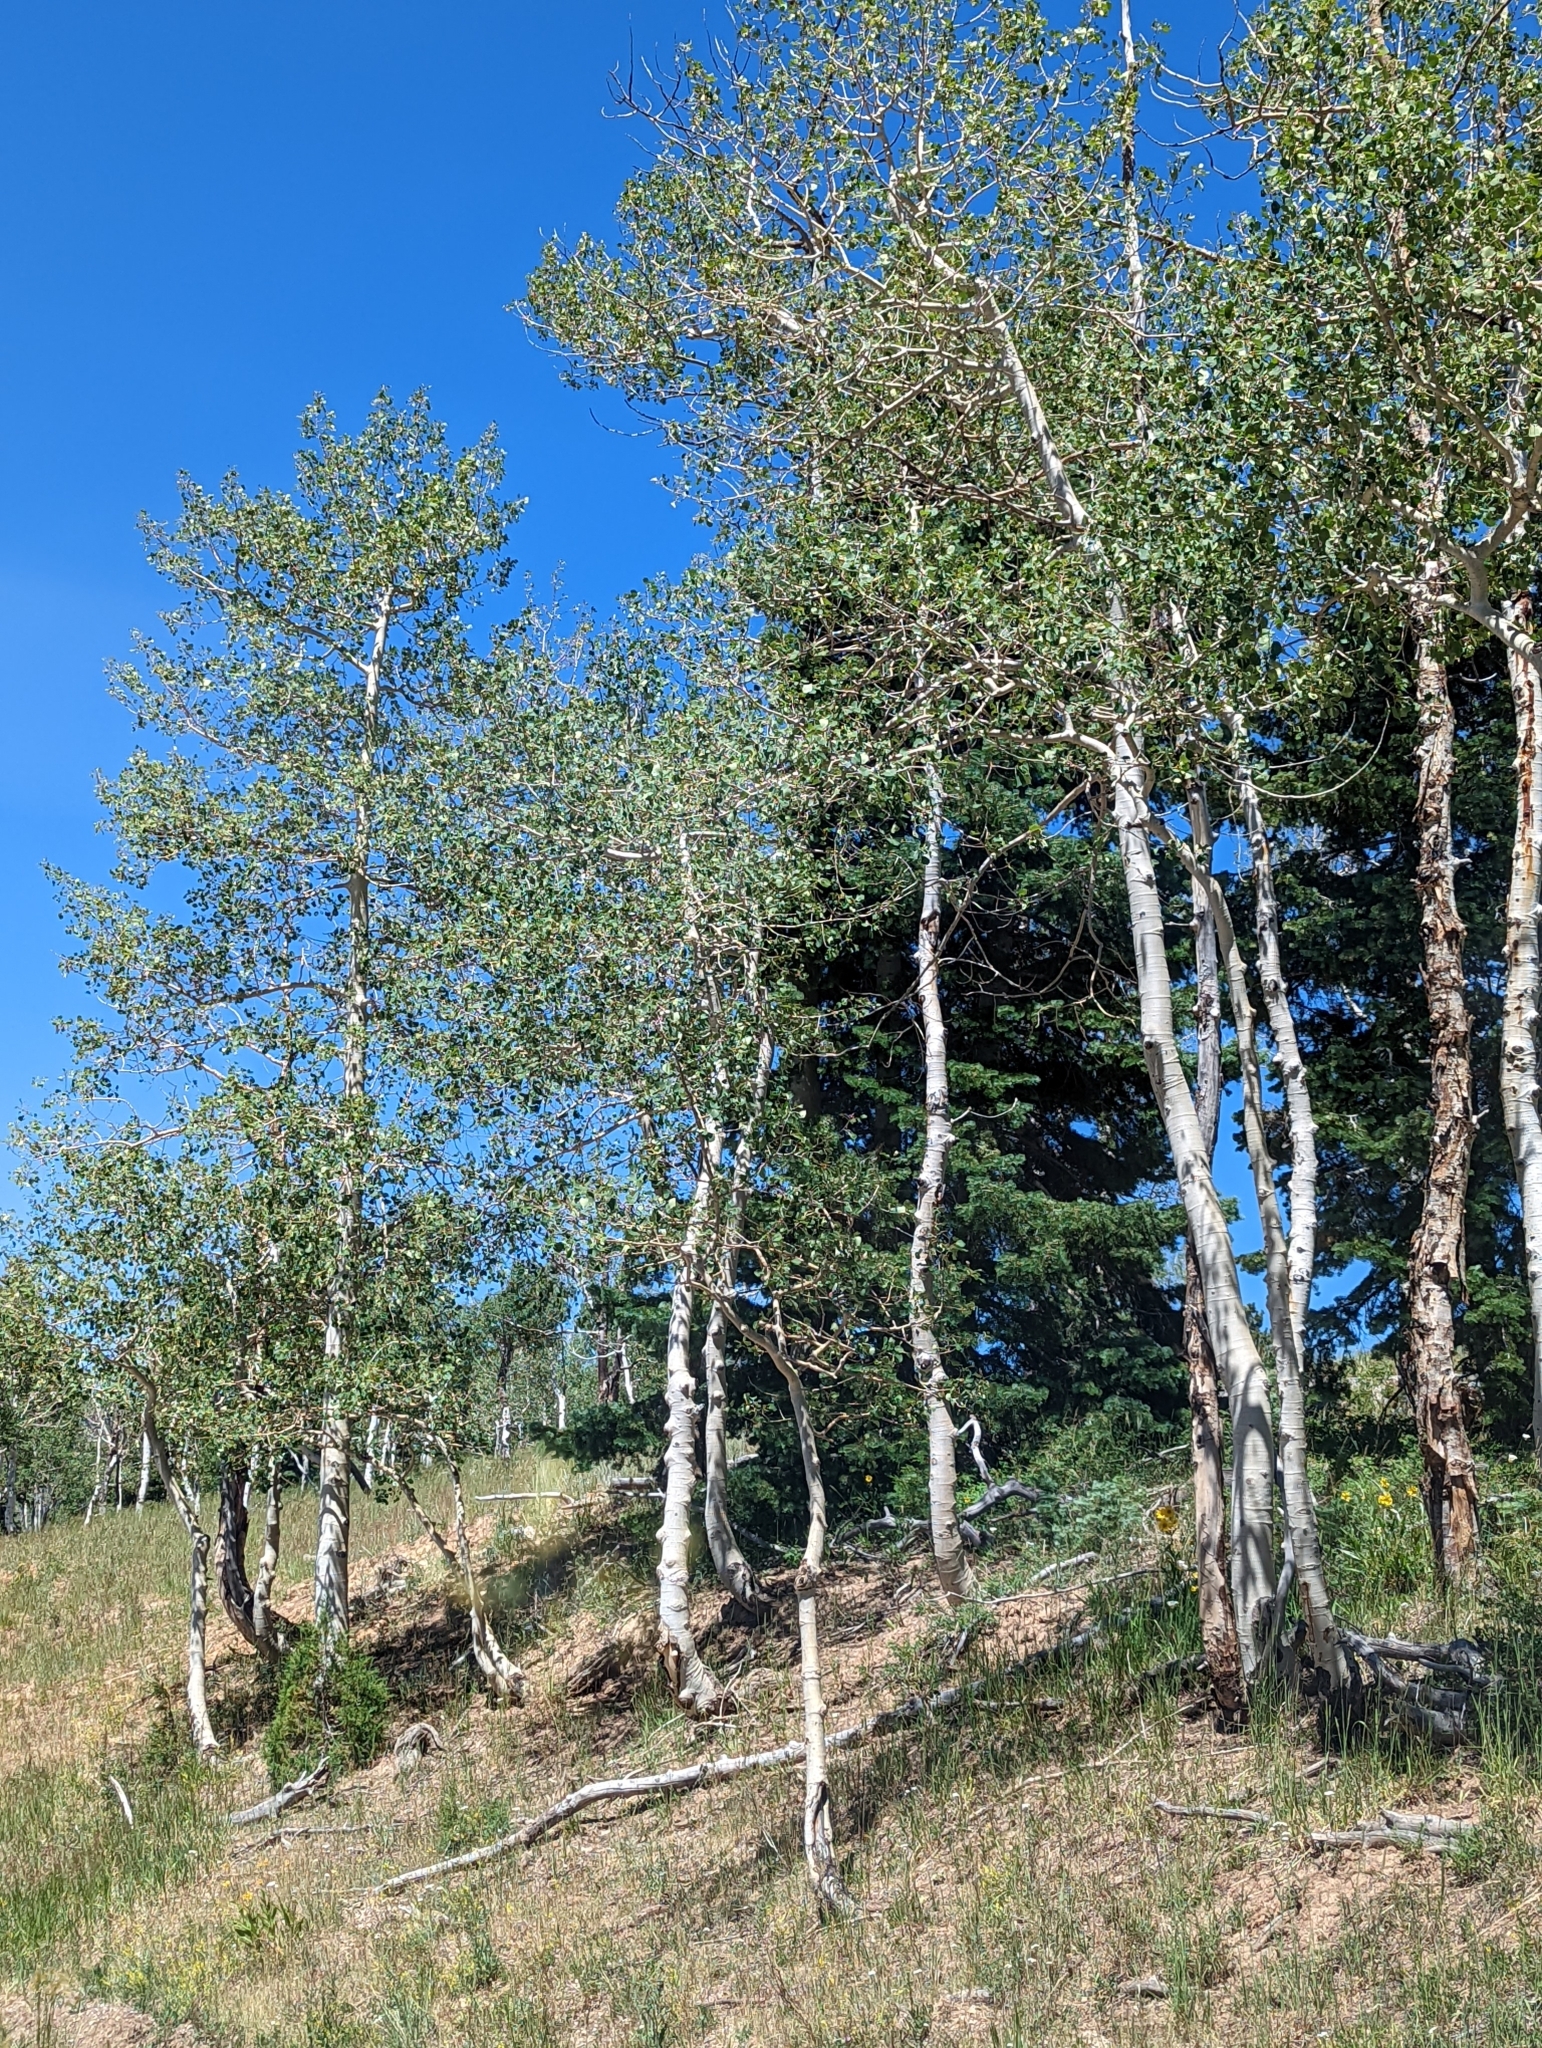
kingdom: Plantae
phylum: Tracheophyta
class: Magnoliopsida
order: Malpighiales
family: Salicaceae
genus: Populus
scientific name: Populus tremuloides
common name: Quaking aspen
